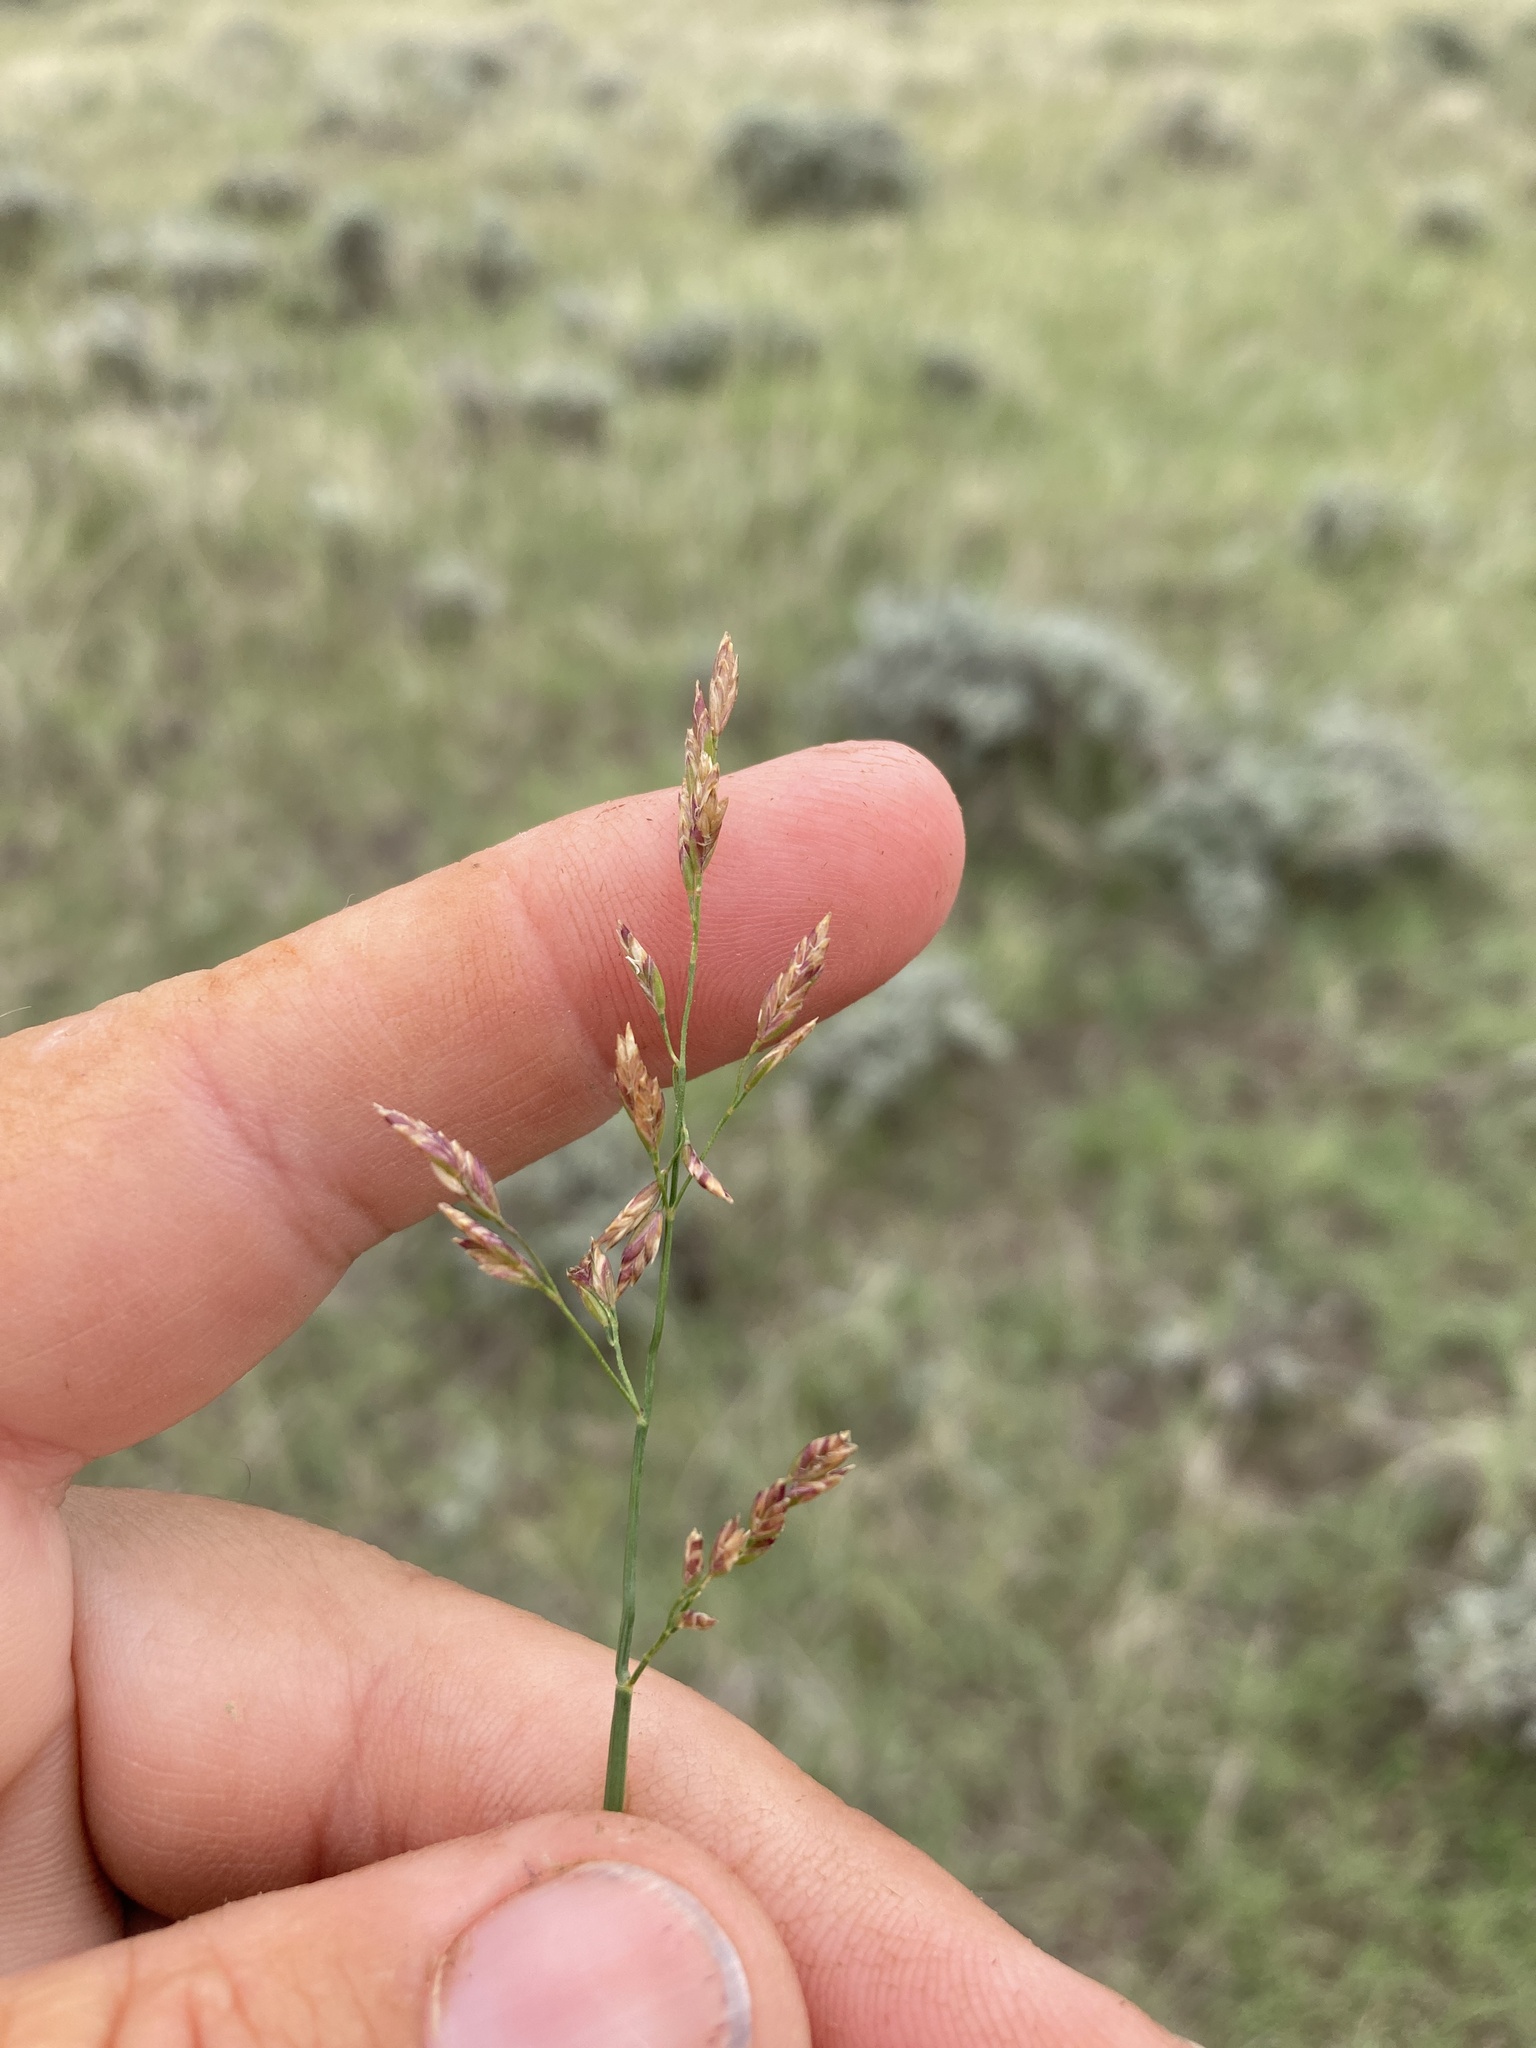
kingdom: Plantae
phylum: Tracheophyta
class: Liliopsida
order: Poales
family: Poaceae
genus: Poa
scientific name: Poa compressa
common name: Canada bluegrass
